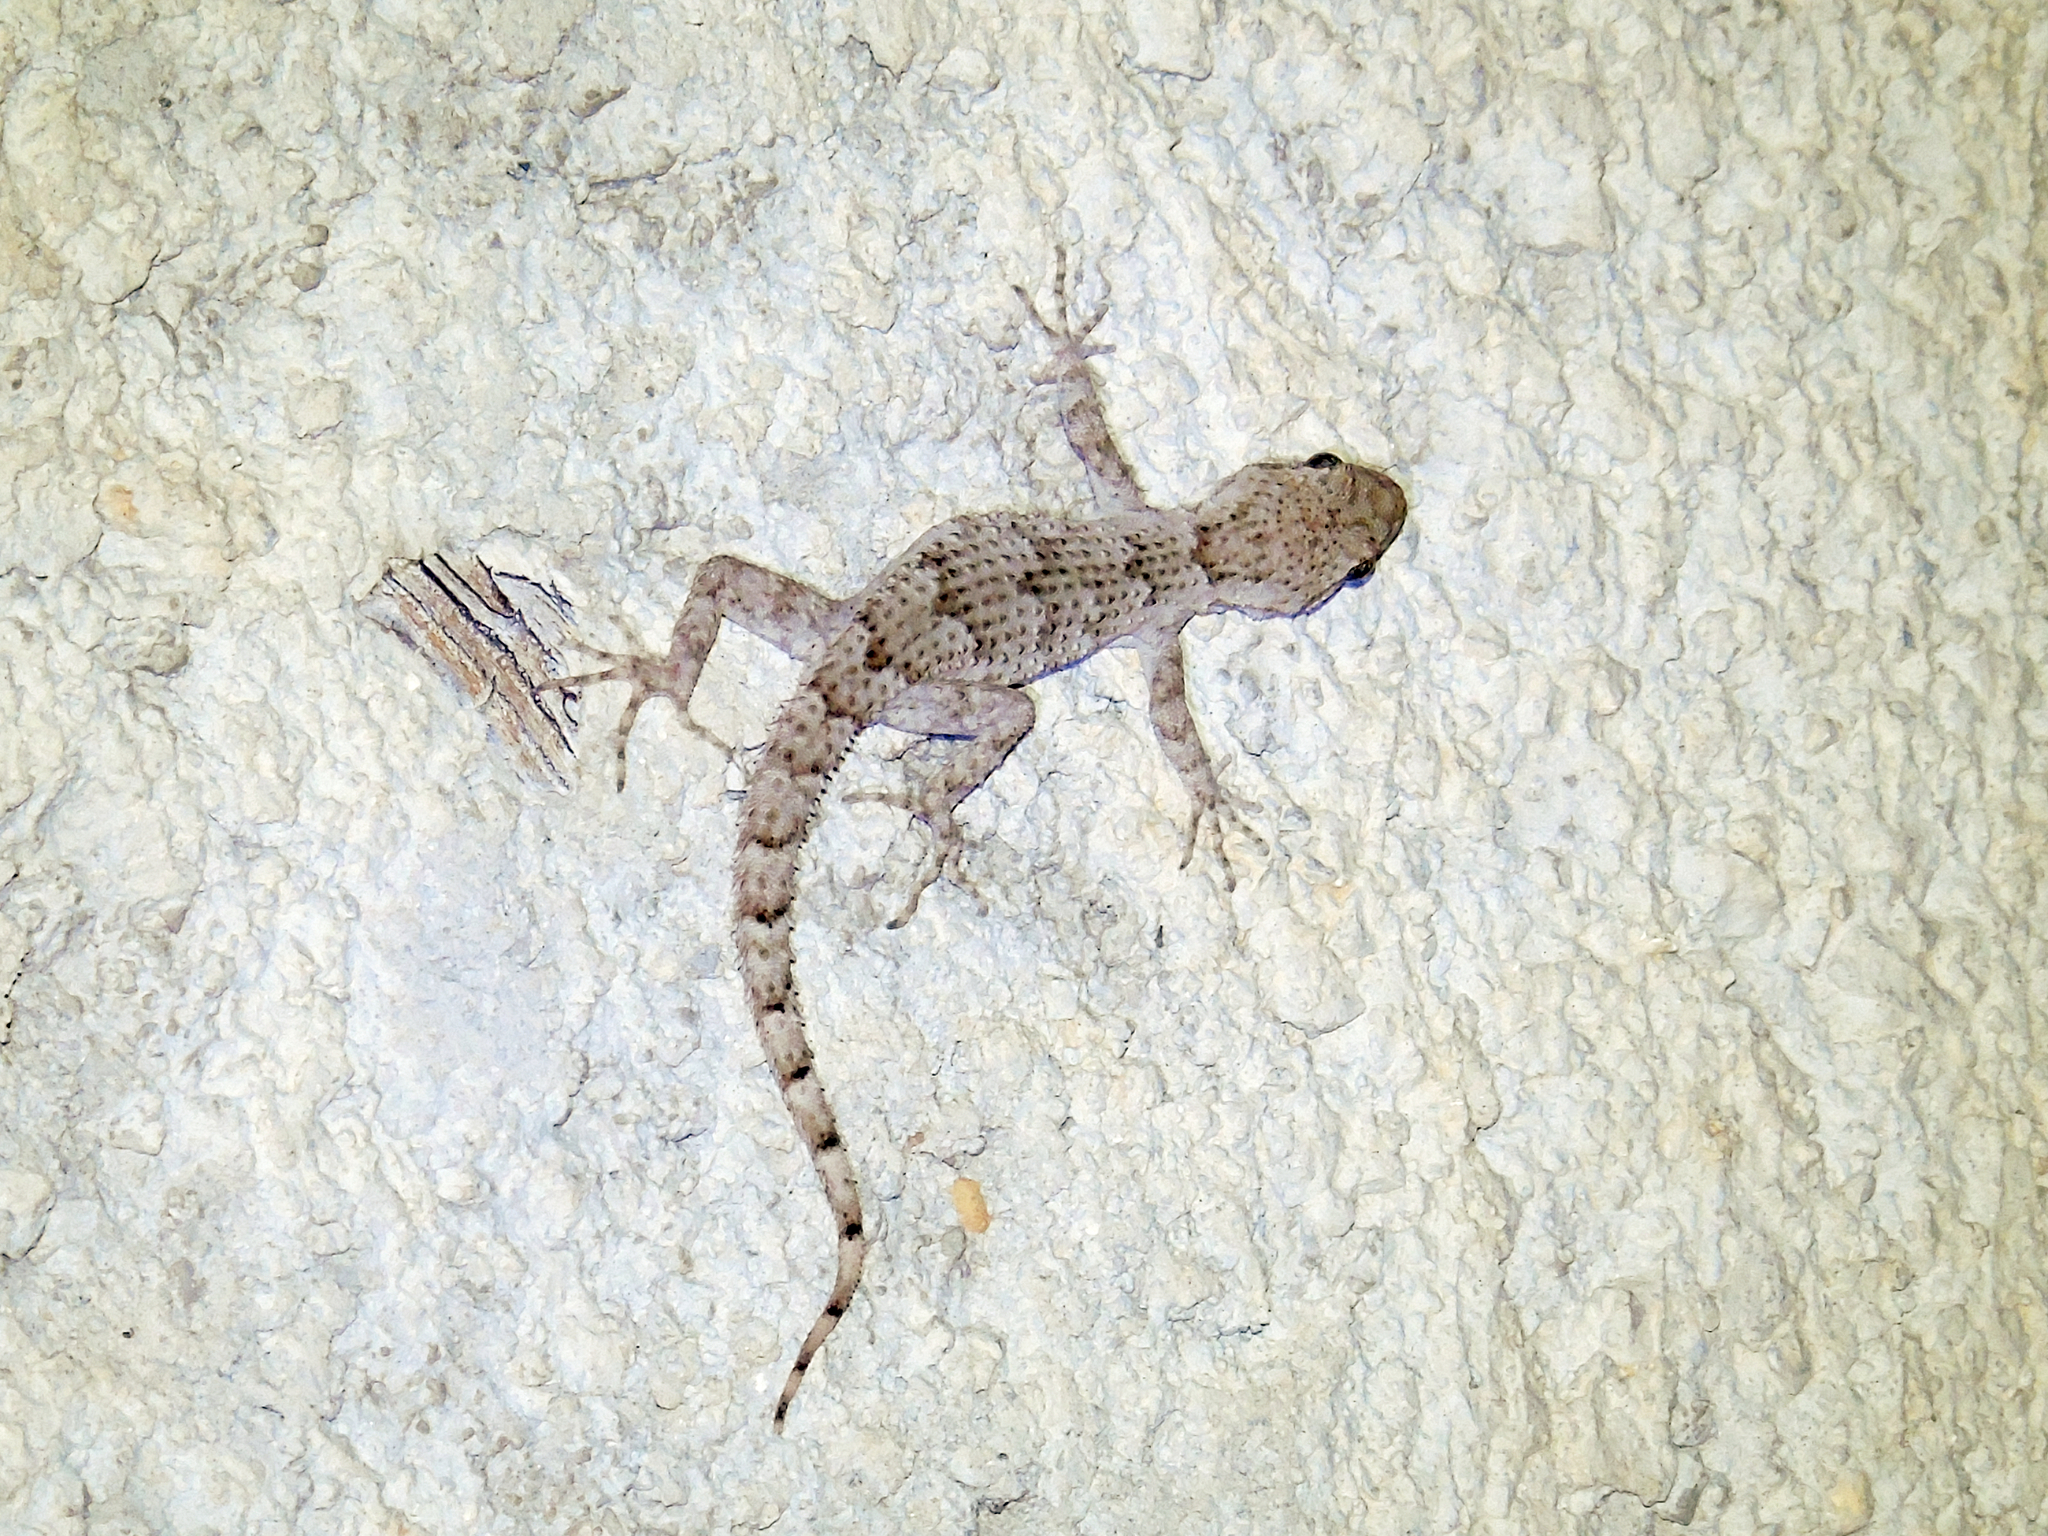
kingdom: Animalia
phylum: Chordata
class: Squamata
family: Gekkonidae
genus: Mediodactylus
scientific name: Mediodactylus kotschyi
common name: Kotschy's gecko
